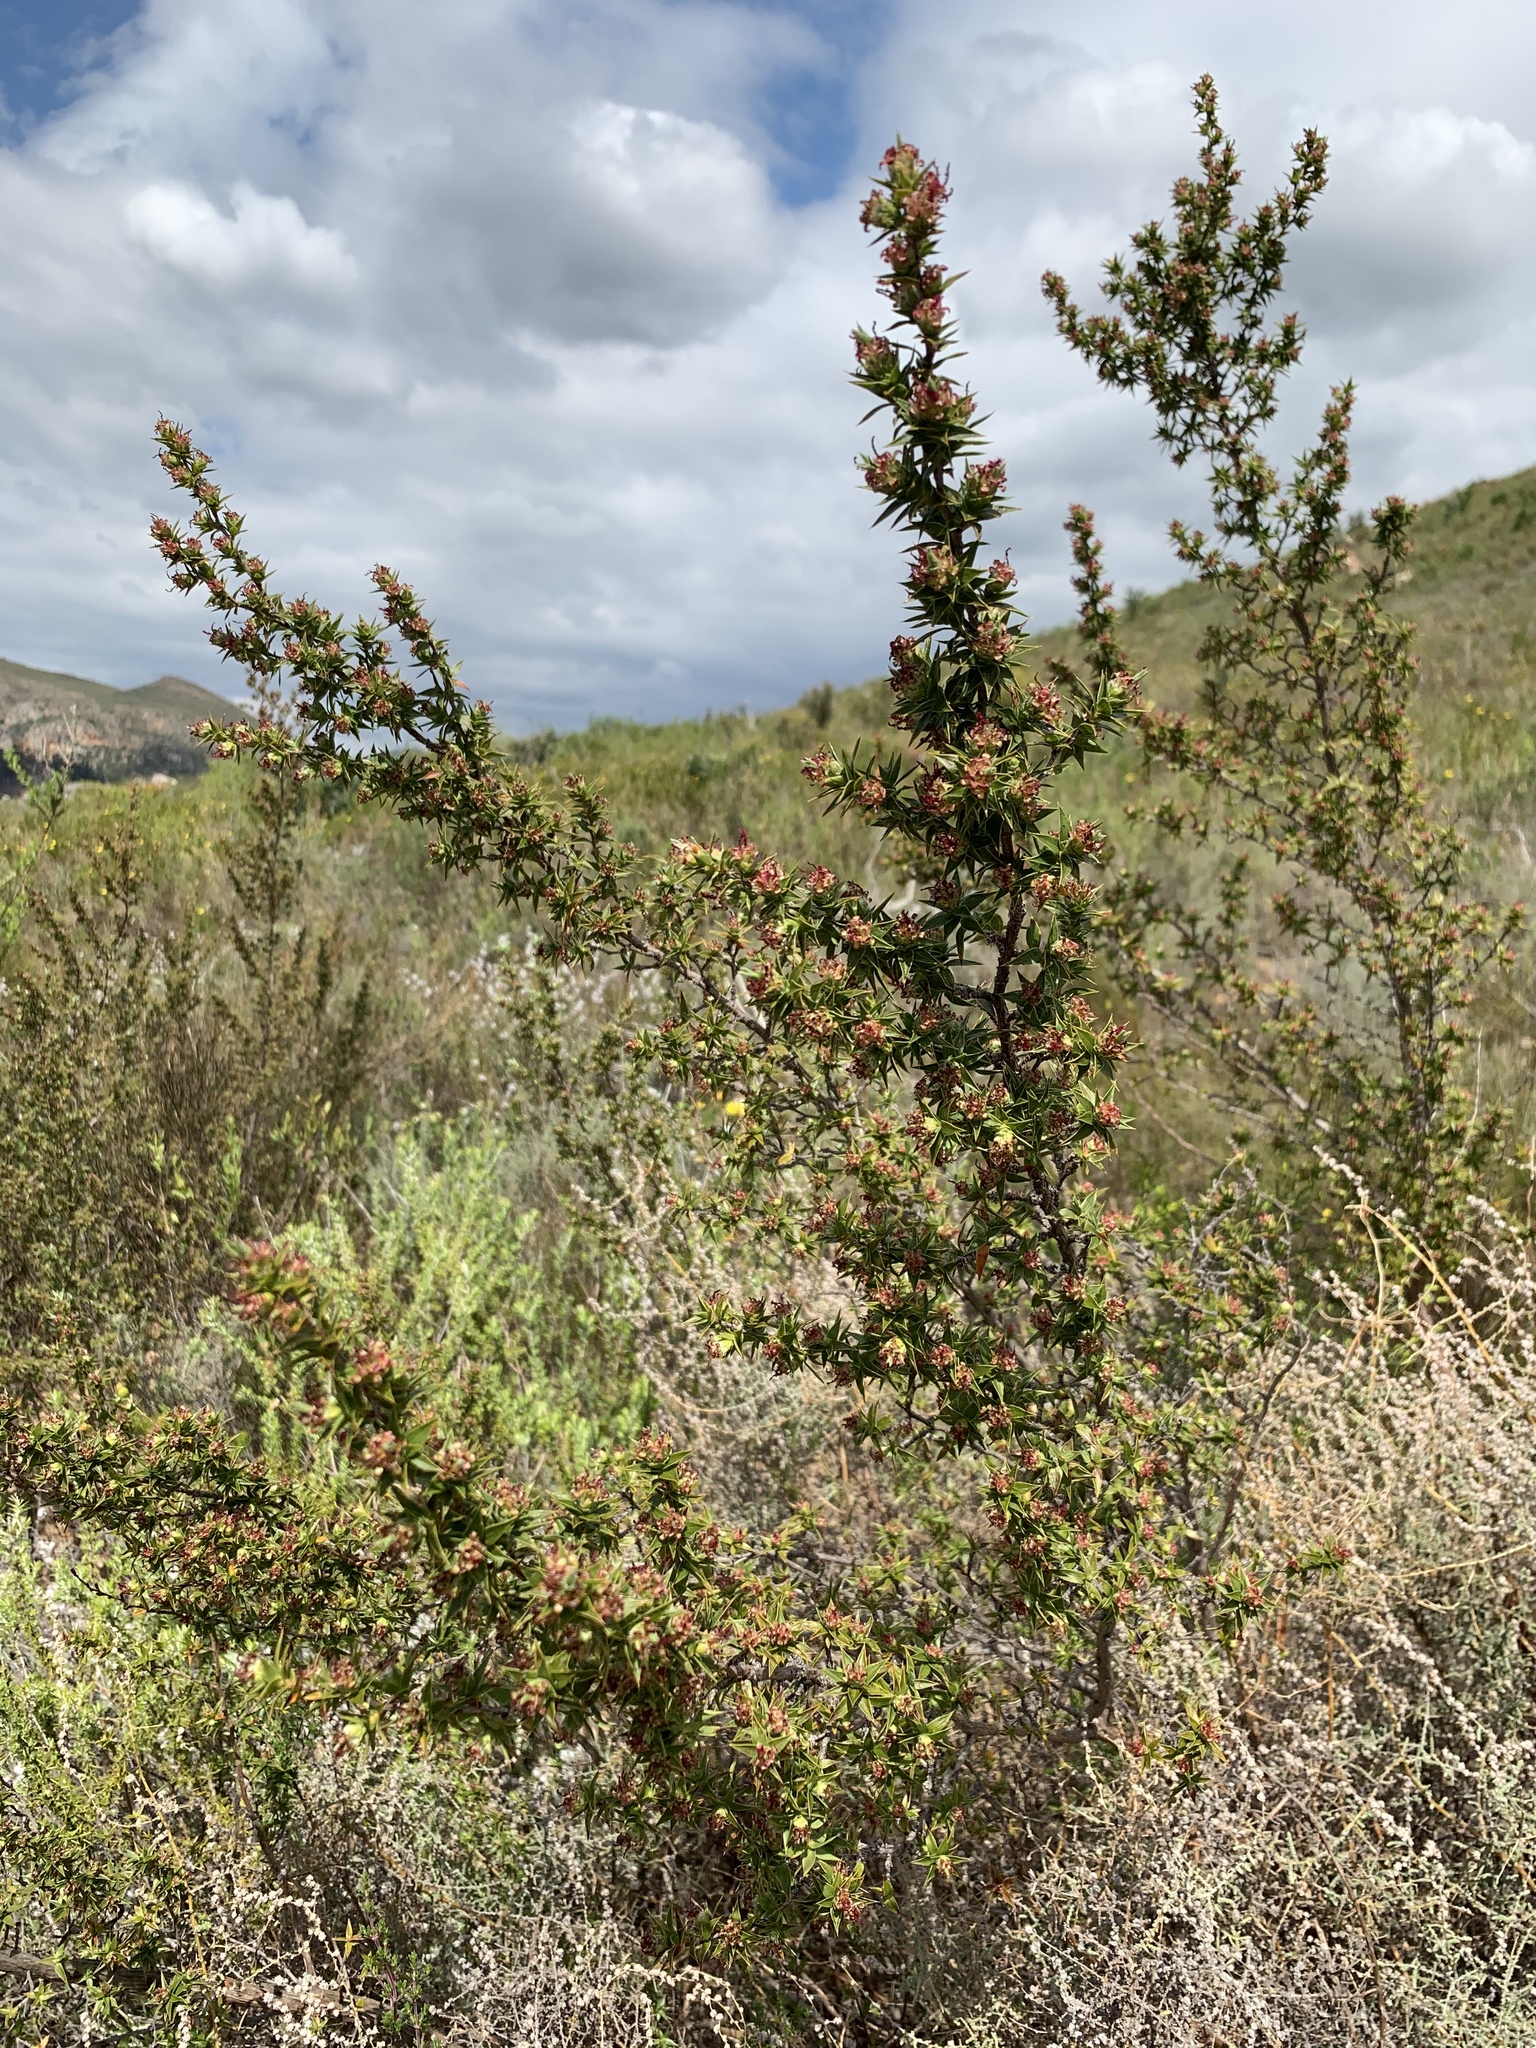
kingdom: Plantae
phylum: Tracheophyta
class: Magnoliopsida
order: Rosales
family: Rosaceae
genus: Cliffortia
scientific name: Cliffortia ruscifolia
